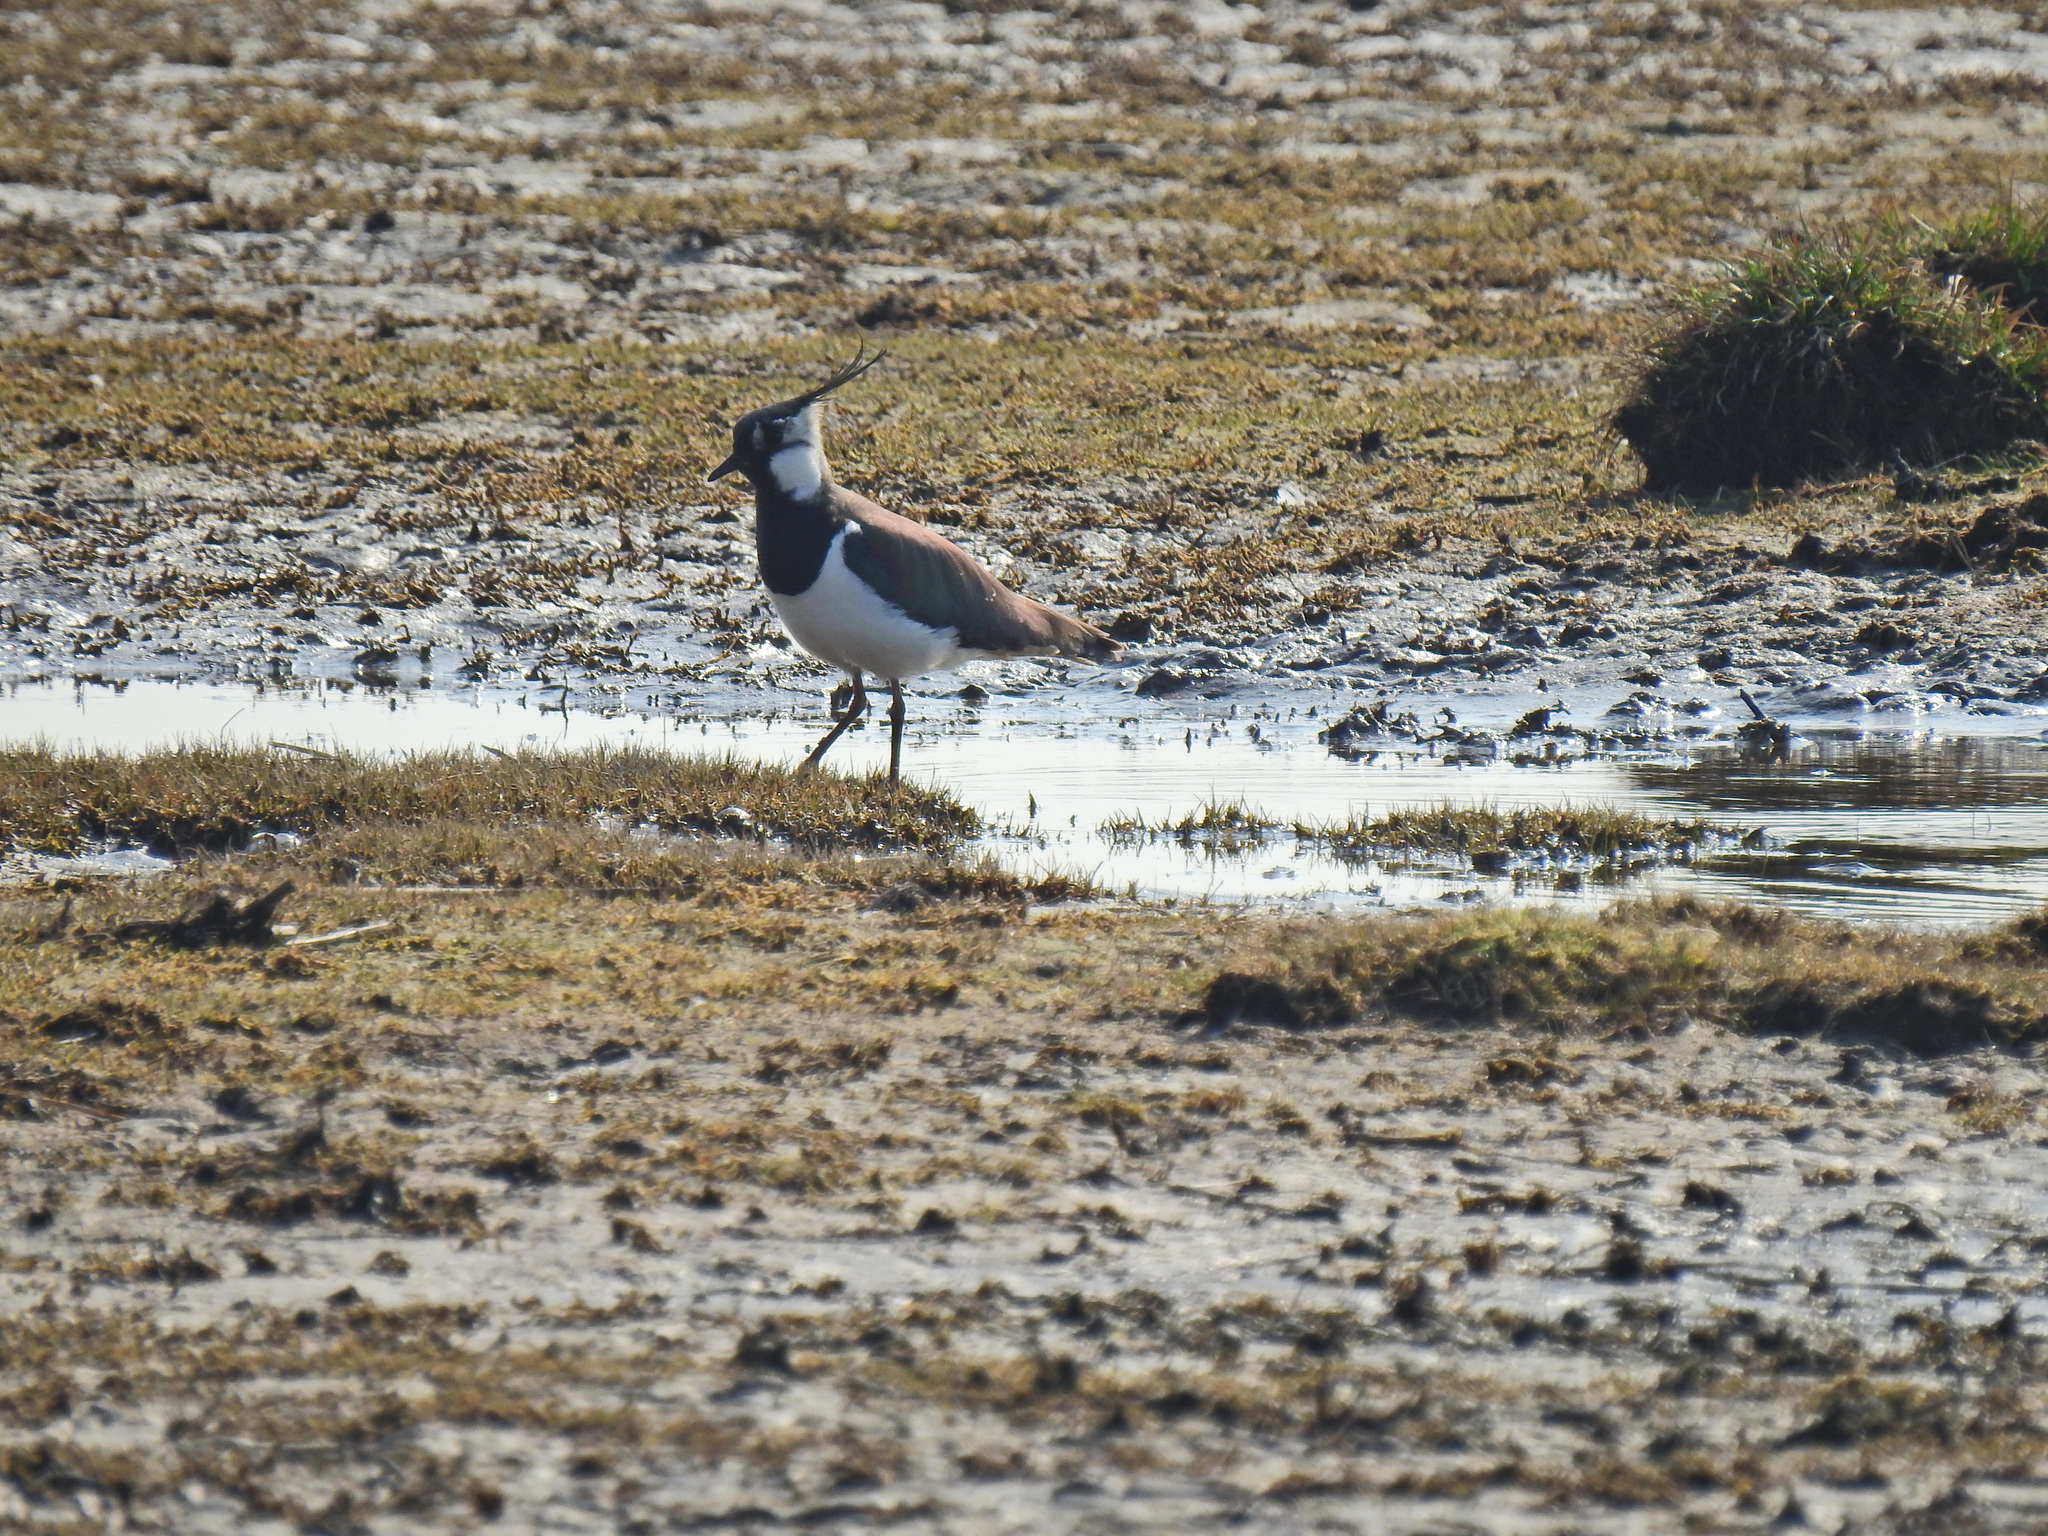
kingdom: Animalia
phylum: Chordata
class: Aves
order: Charadriiformes
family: Charadriidae
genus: Vanellus
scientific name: Vanellus vanellus
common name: Northern lapwing
